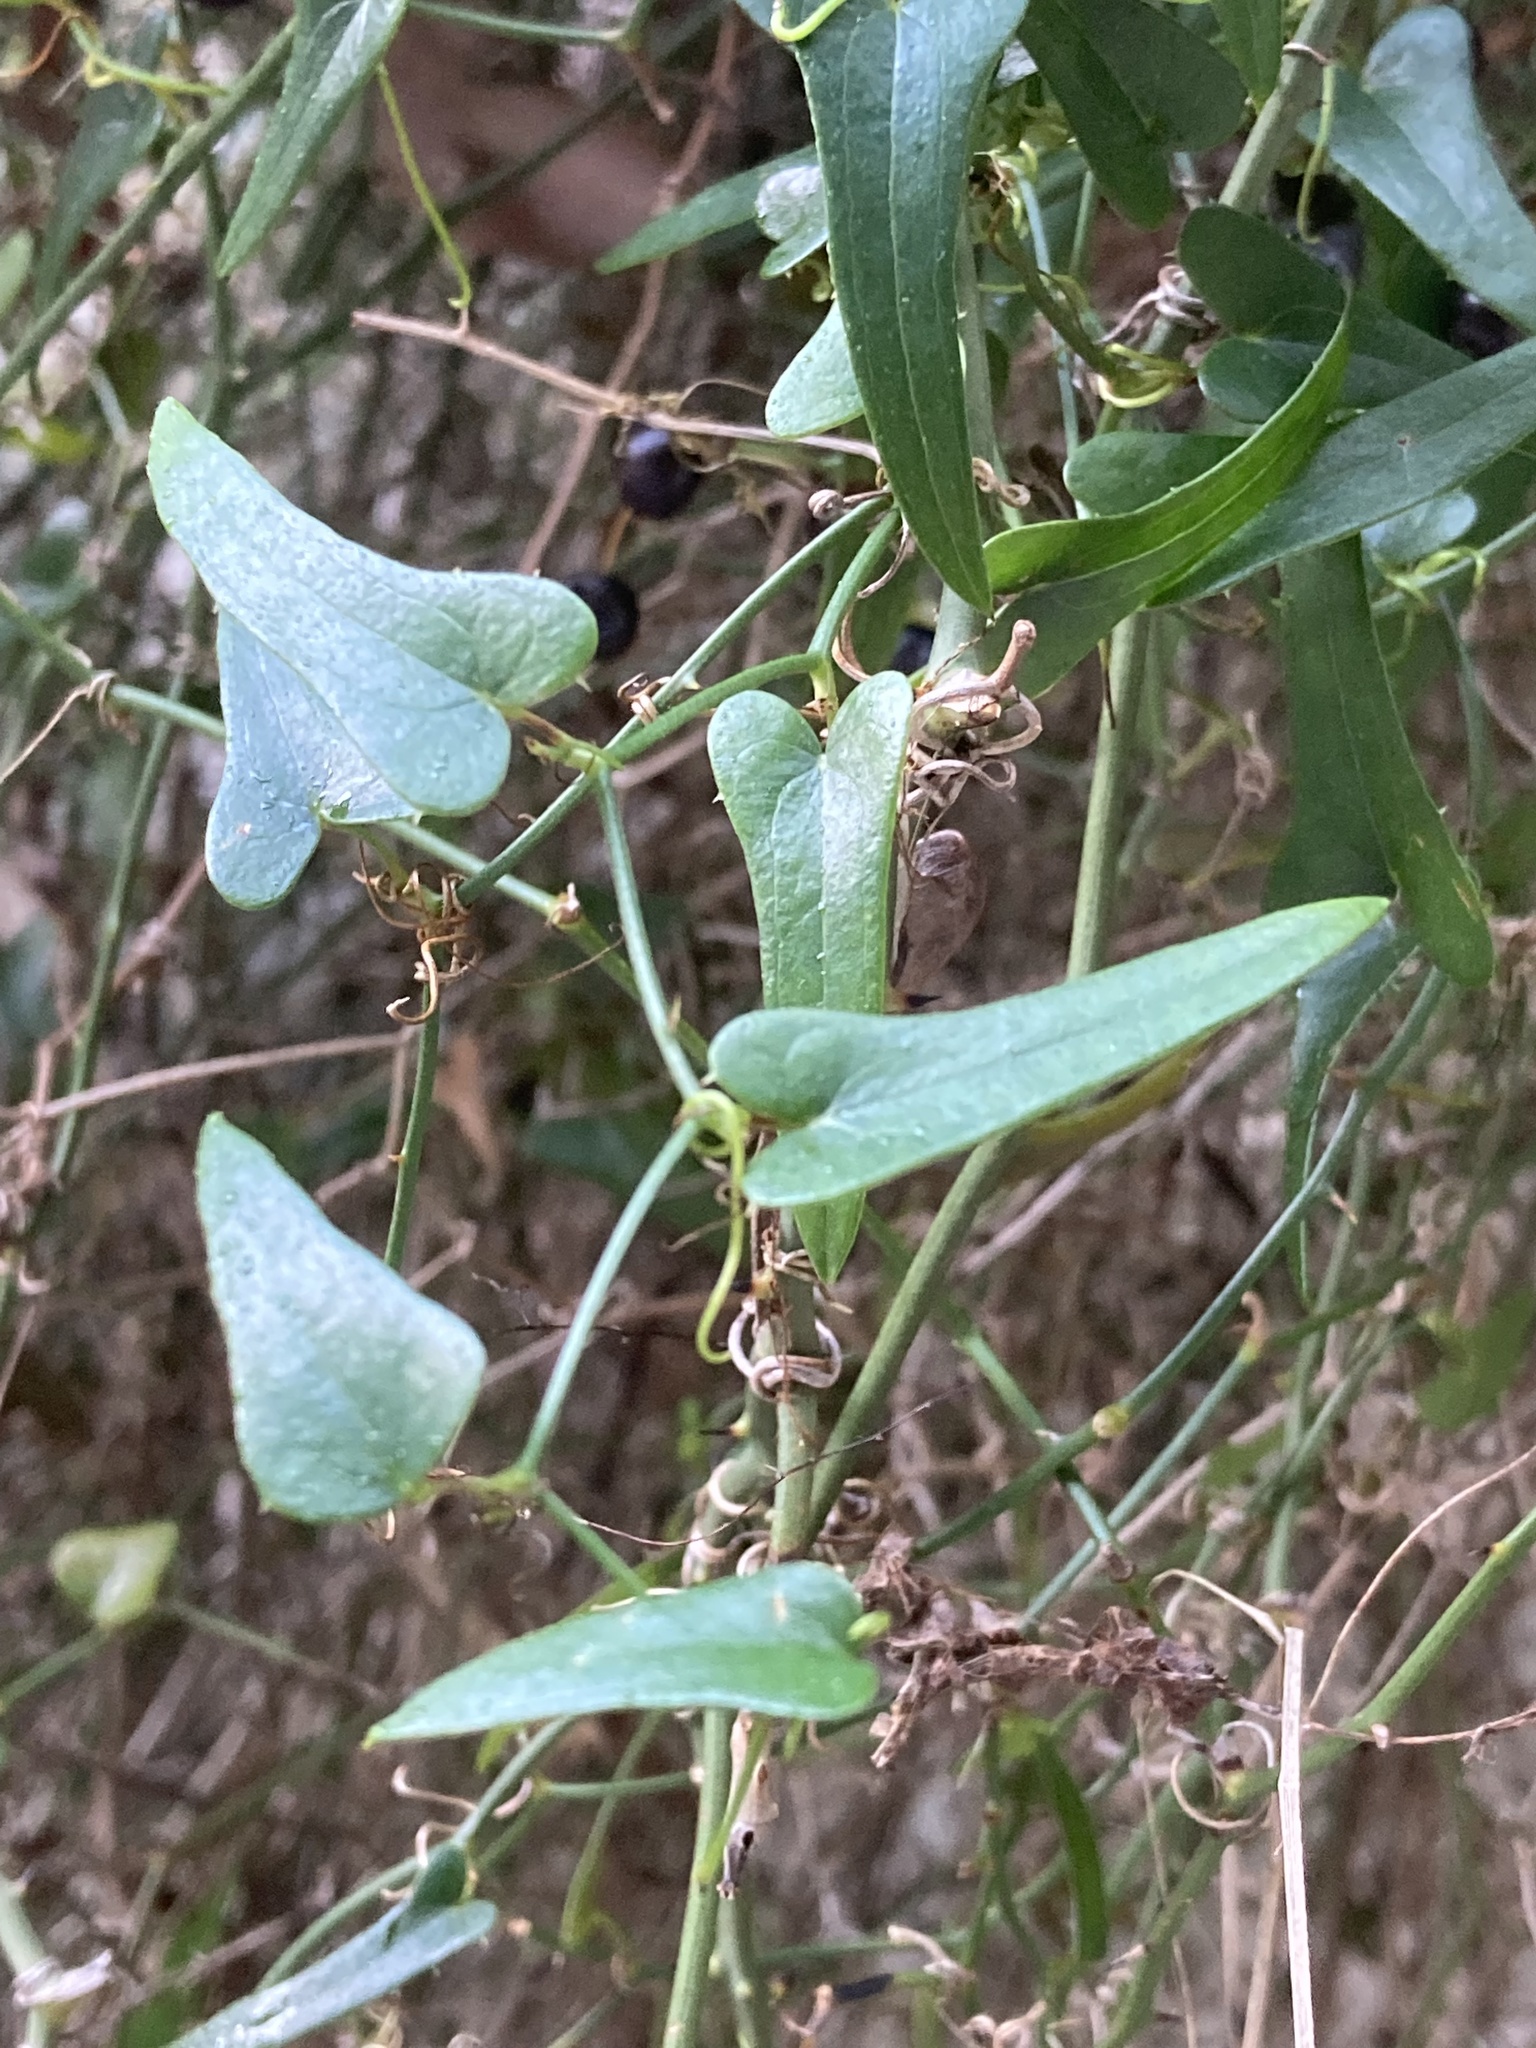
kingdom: Plantae
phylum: Tracheophyta
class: Liliopsida
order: Liliales
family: Smilacaceae
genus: Smilax
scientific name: Smilax aspera
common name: Common smilax
